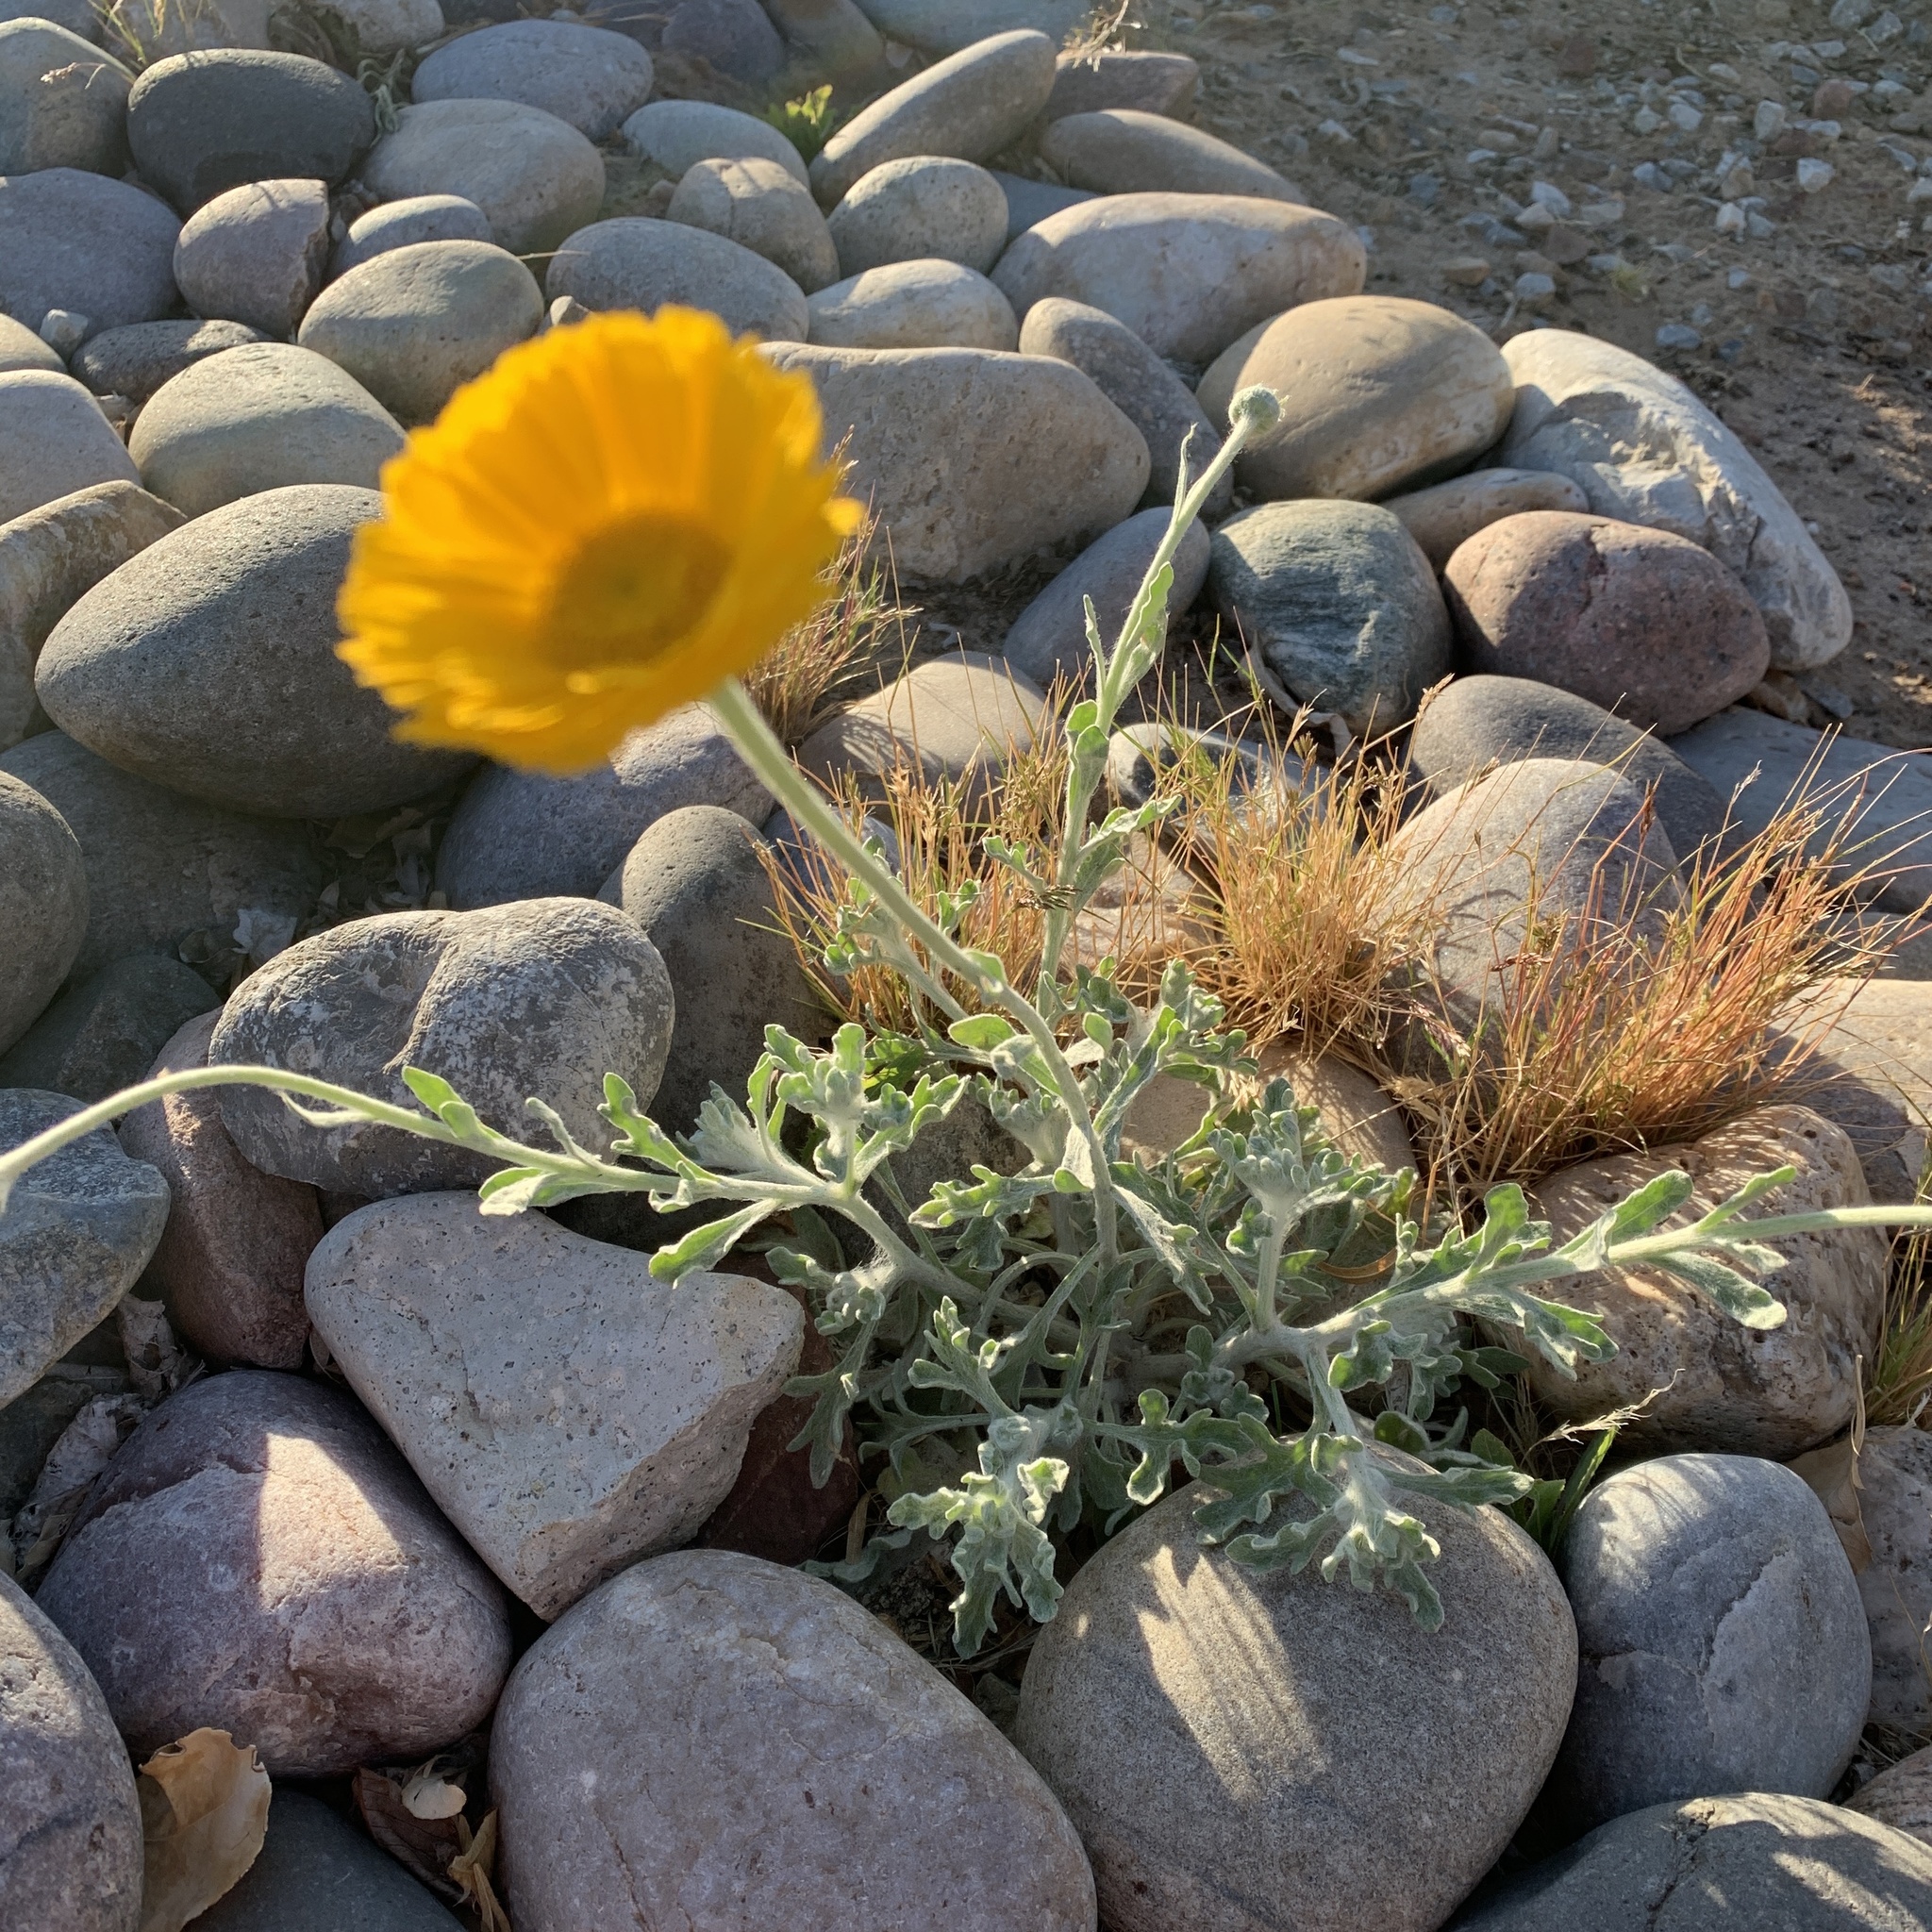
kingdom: Plantae
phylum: Tracheophyta
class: Magnoliopsida
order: Asterales
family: Asteraceae
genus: Baileya
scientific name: Baileya multiradiata
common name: Desert-marigold
